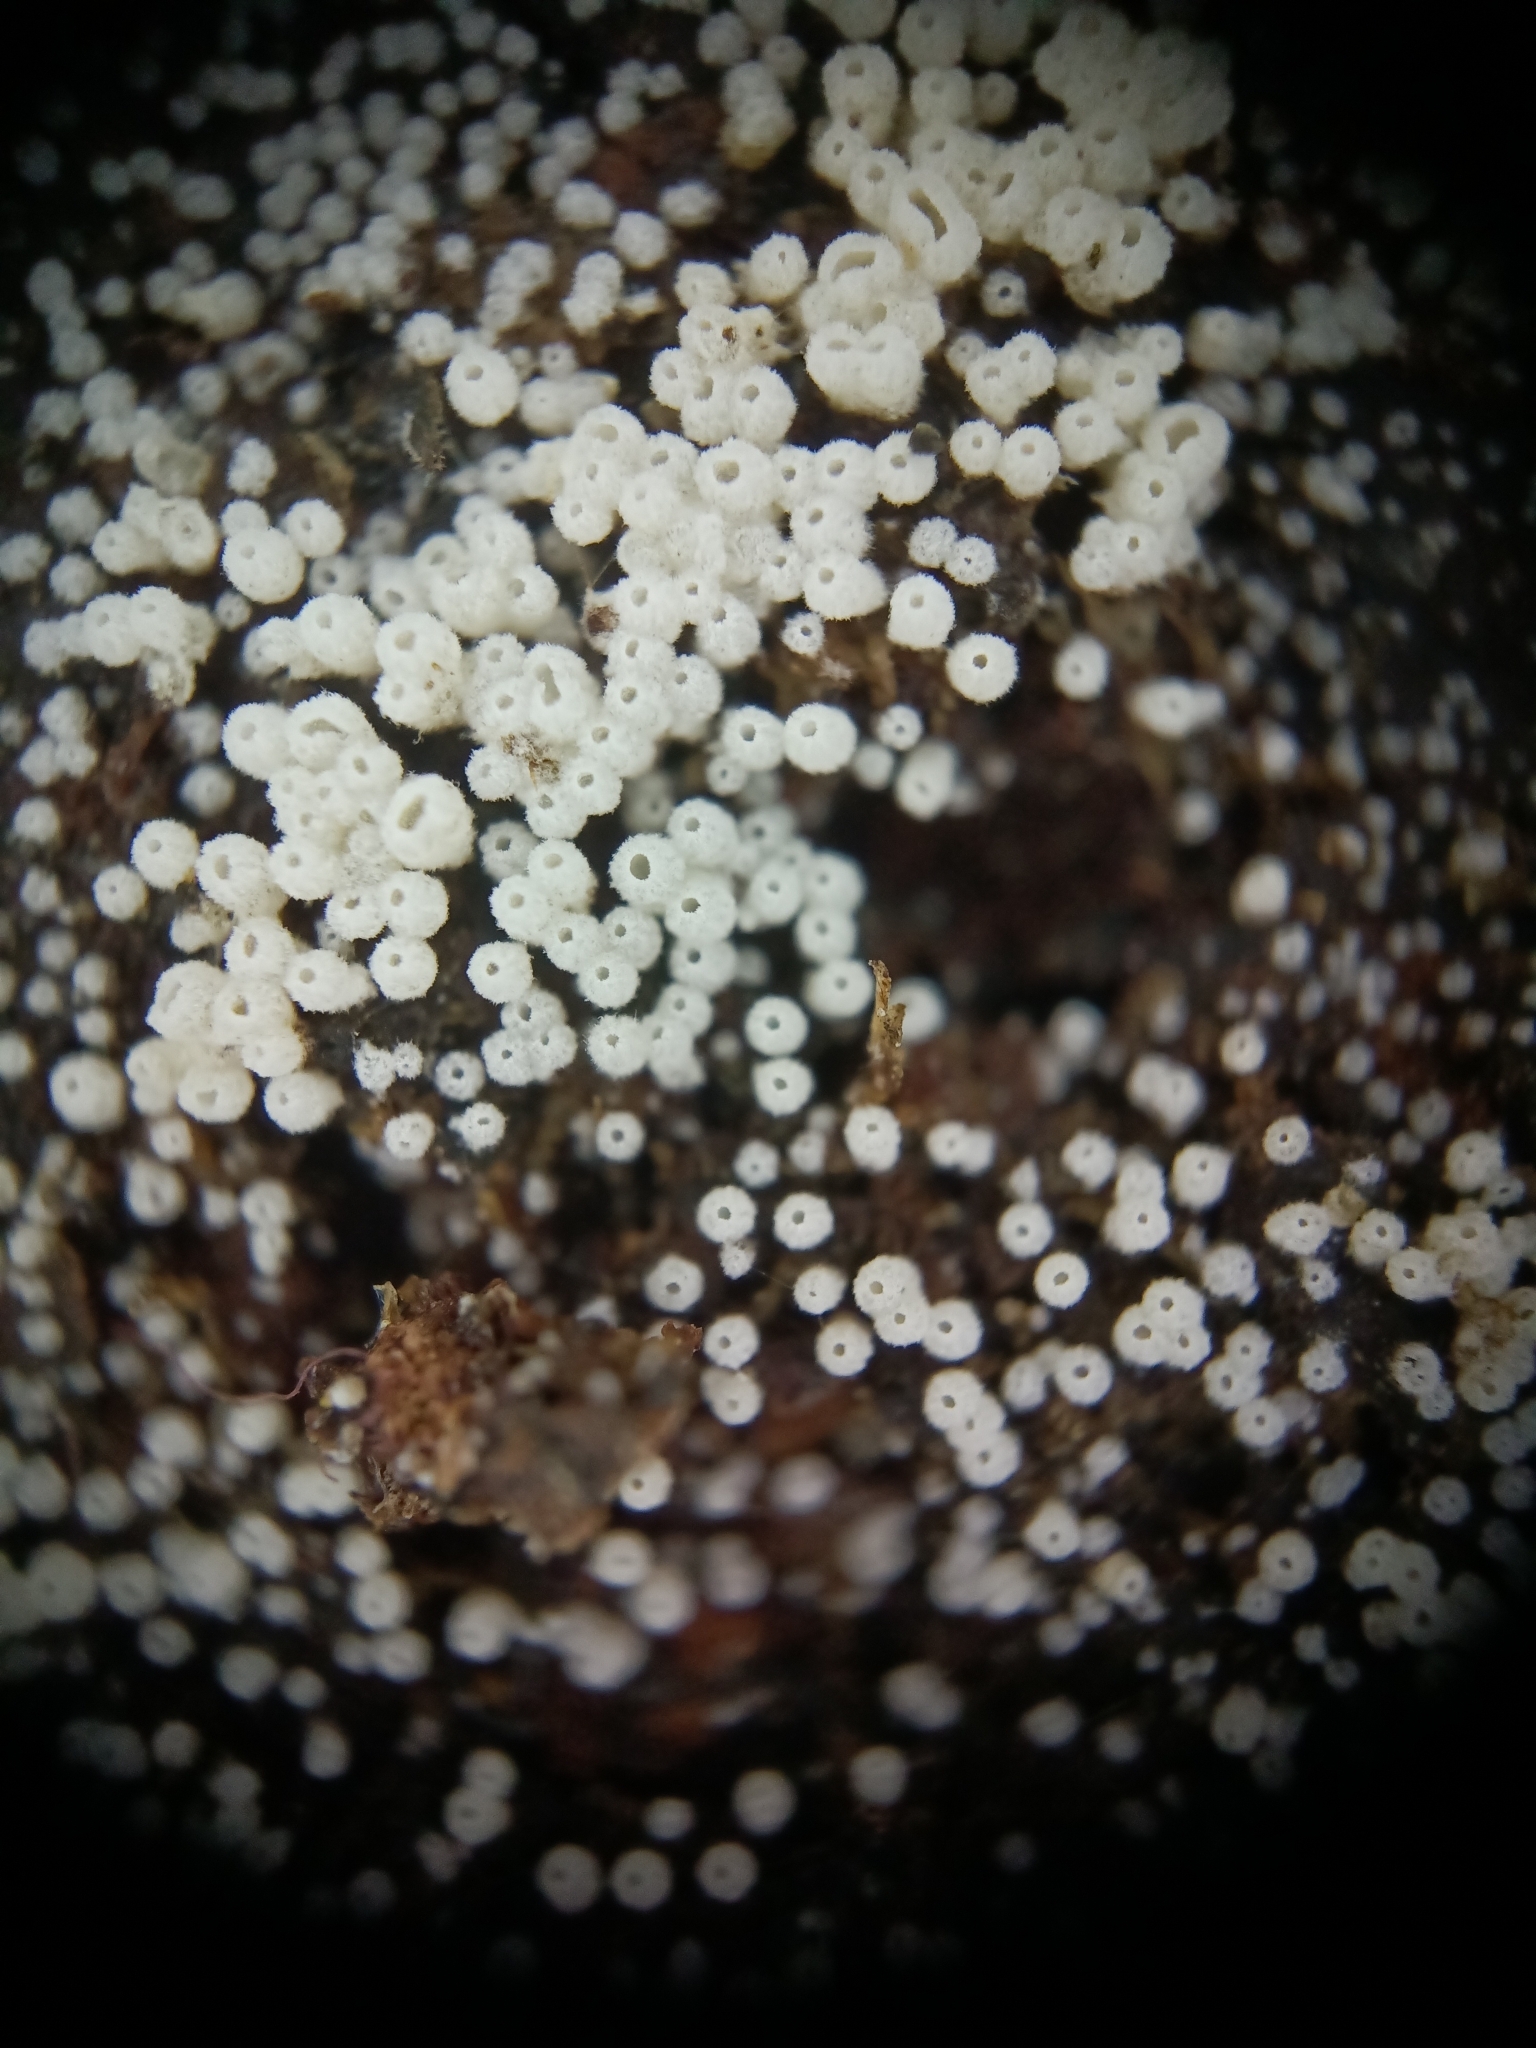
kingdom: Fungi
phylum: Basidiomycota
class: Agaricomycetes
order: Agaricales
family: Marasmiaceae
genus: Henningsomyces
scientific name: Henningsomyces candidus
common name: White tubelet
